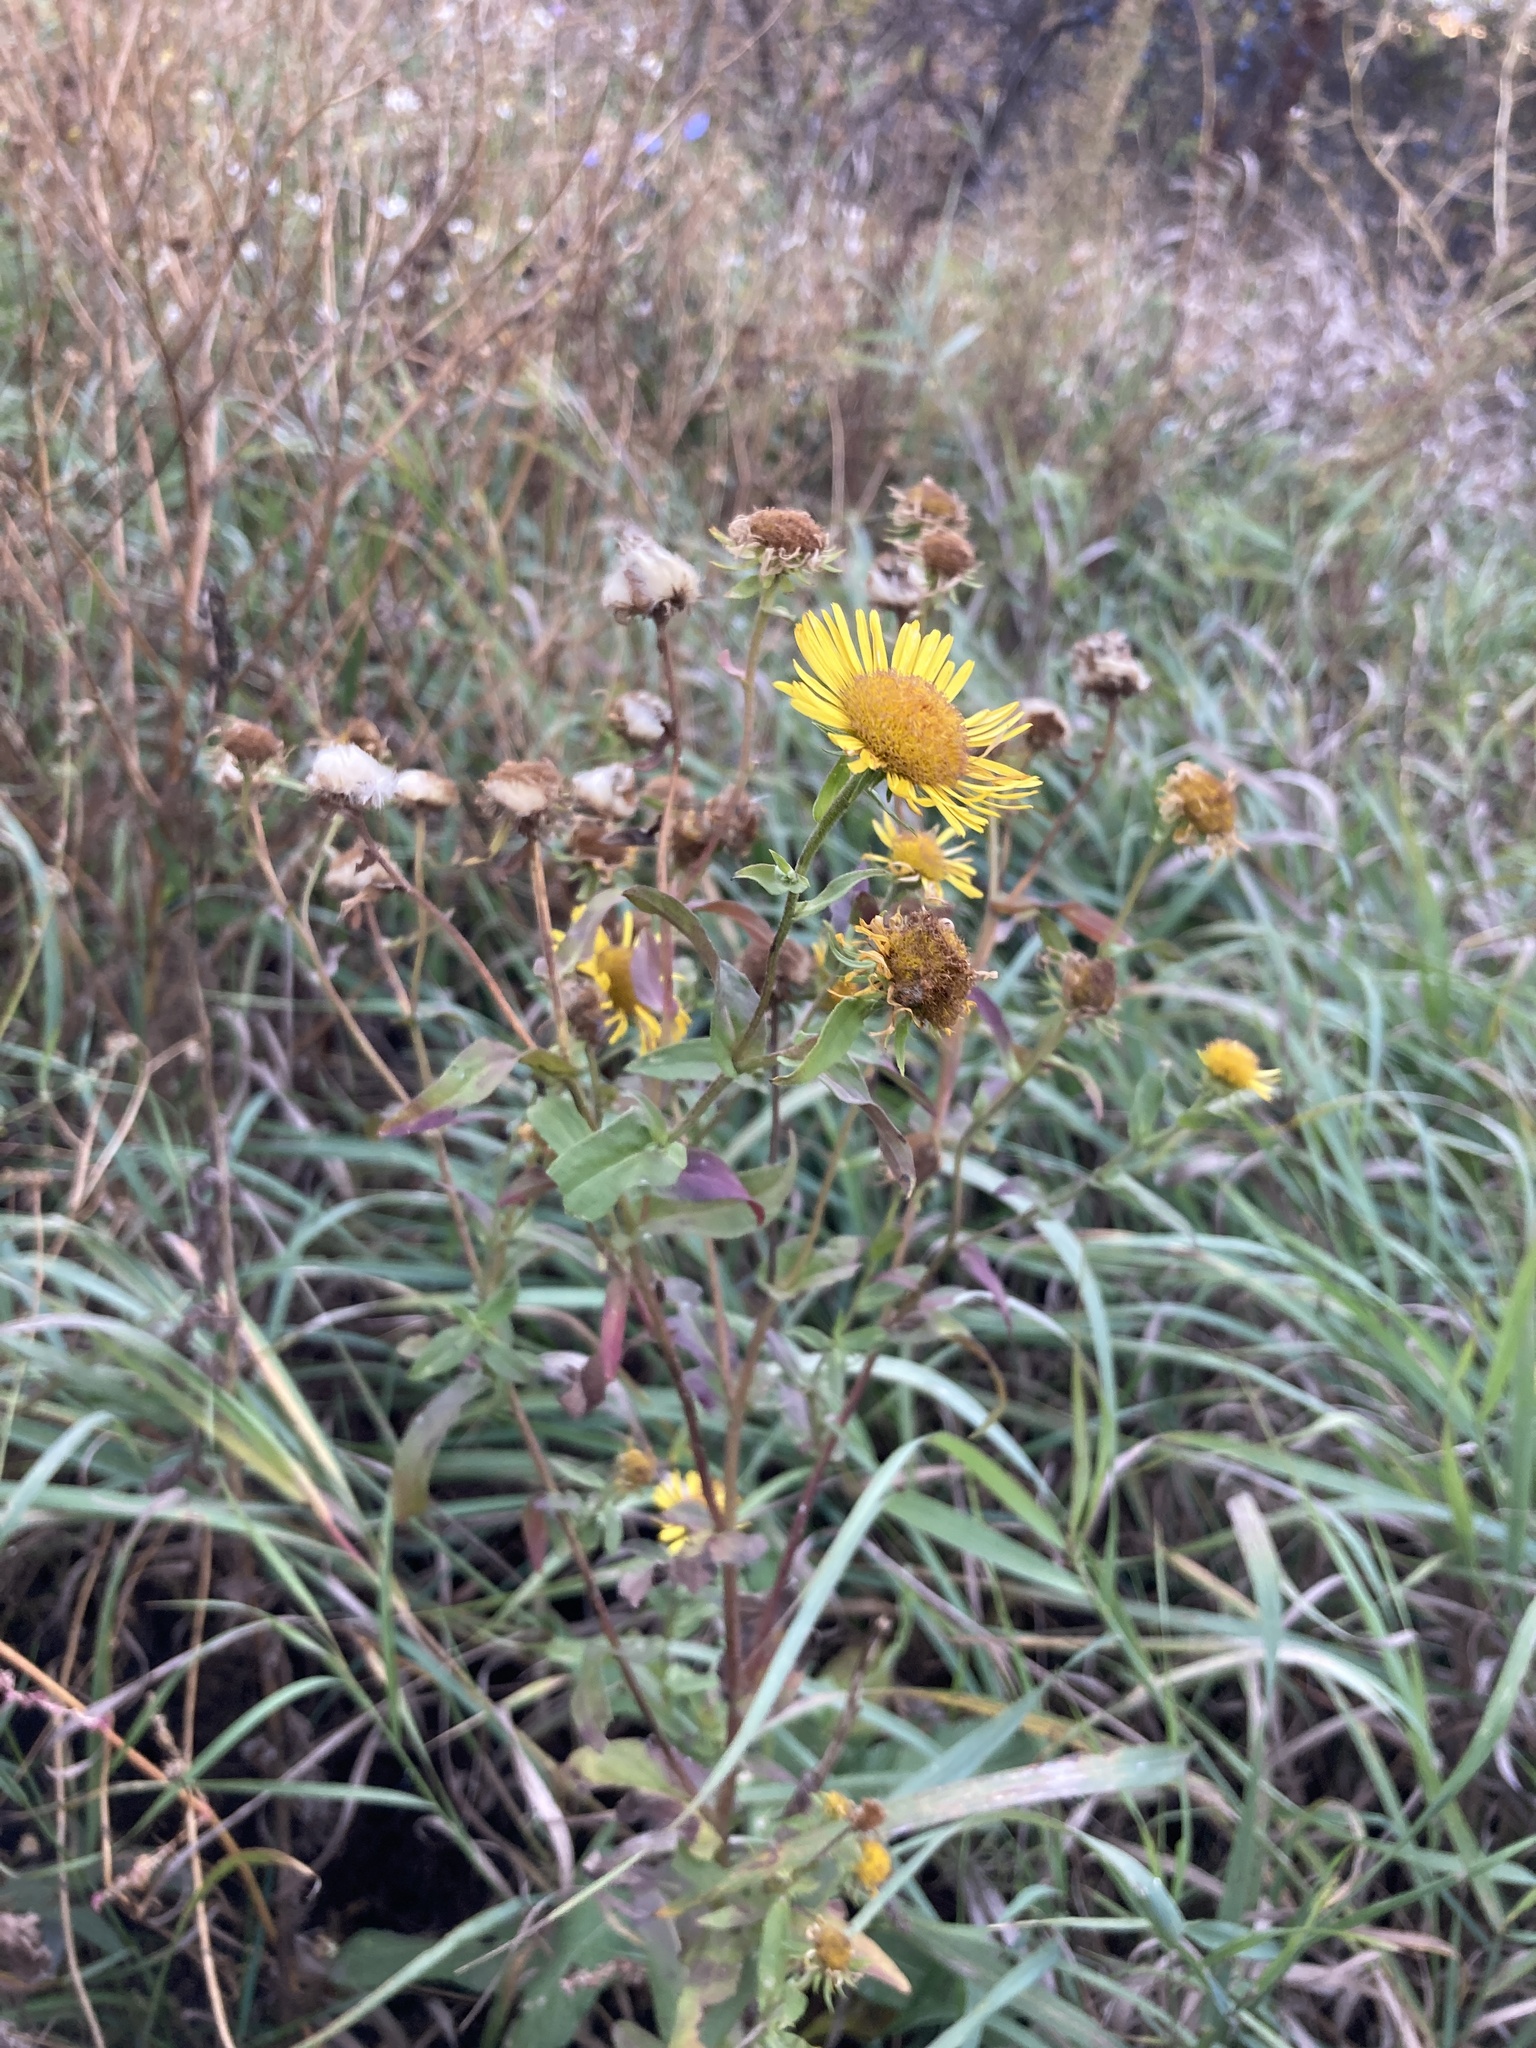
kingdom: Plantae
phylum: Tracheophyta
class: Magnoliopsida
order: Asterales
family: Asteraceae
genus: Pentanema
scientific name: Pentanema britannicum
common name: British elecampane
